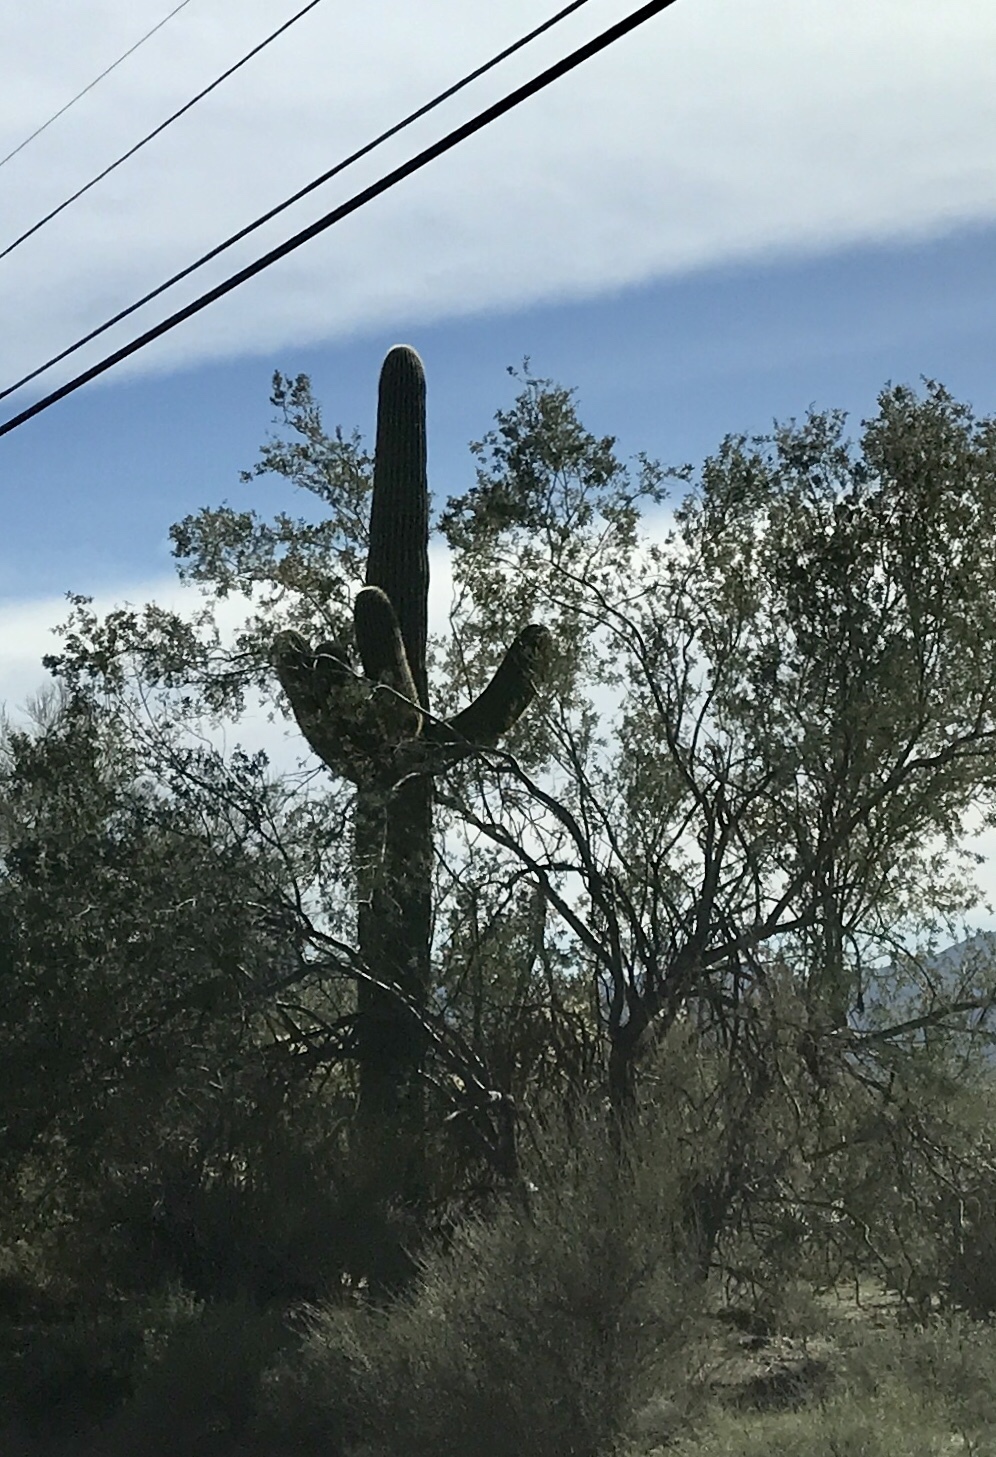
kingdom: Plantae
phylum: Tracheophyta
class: Magnoliopsida
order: Caryophyllales
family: Cactaceae
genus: Carnegiea
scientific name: Carnegiea gigantea
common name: Saguaro
